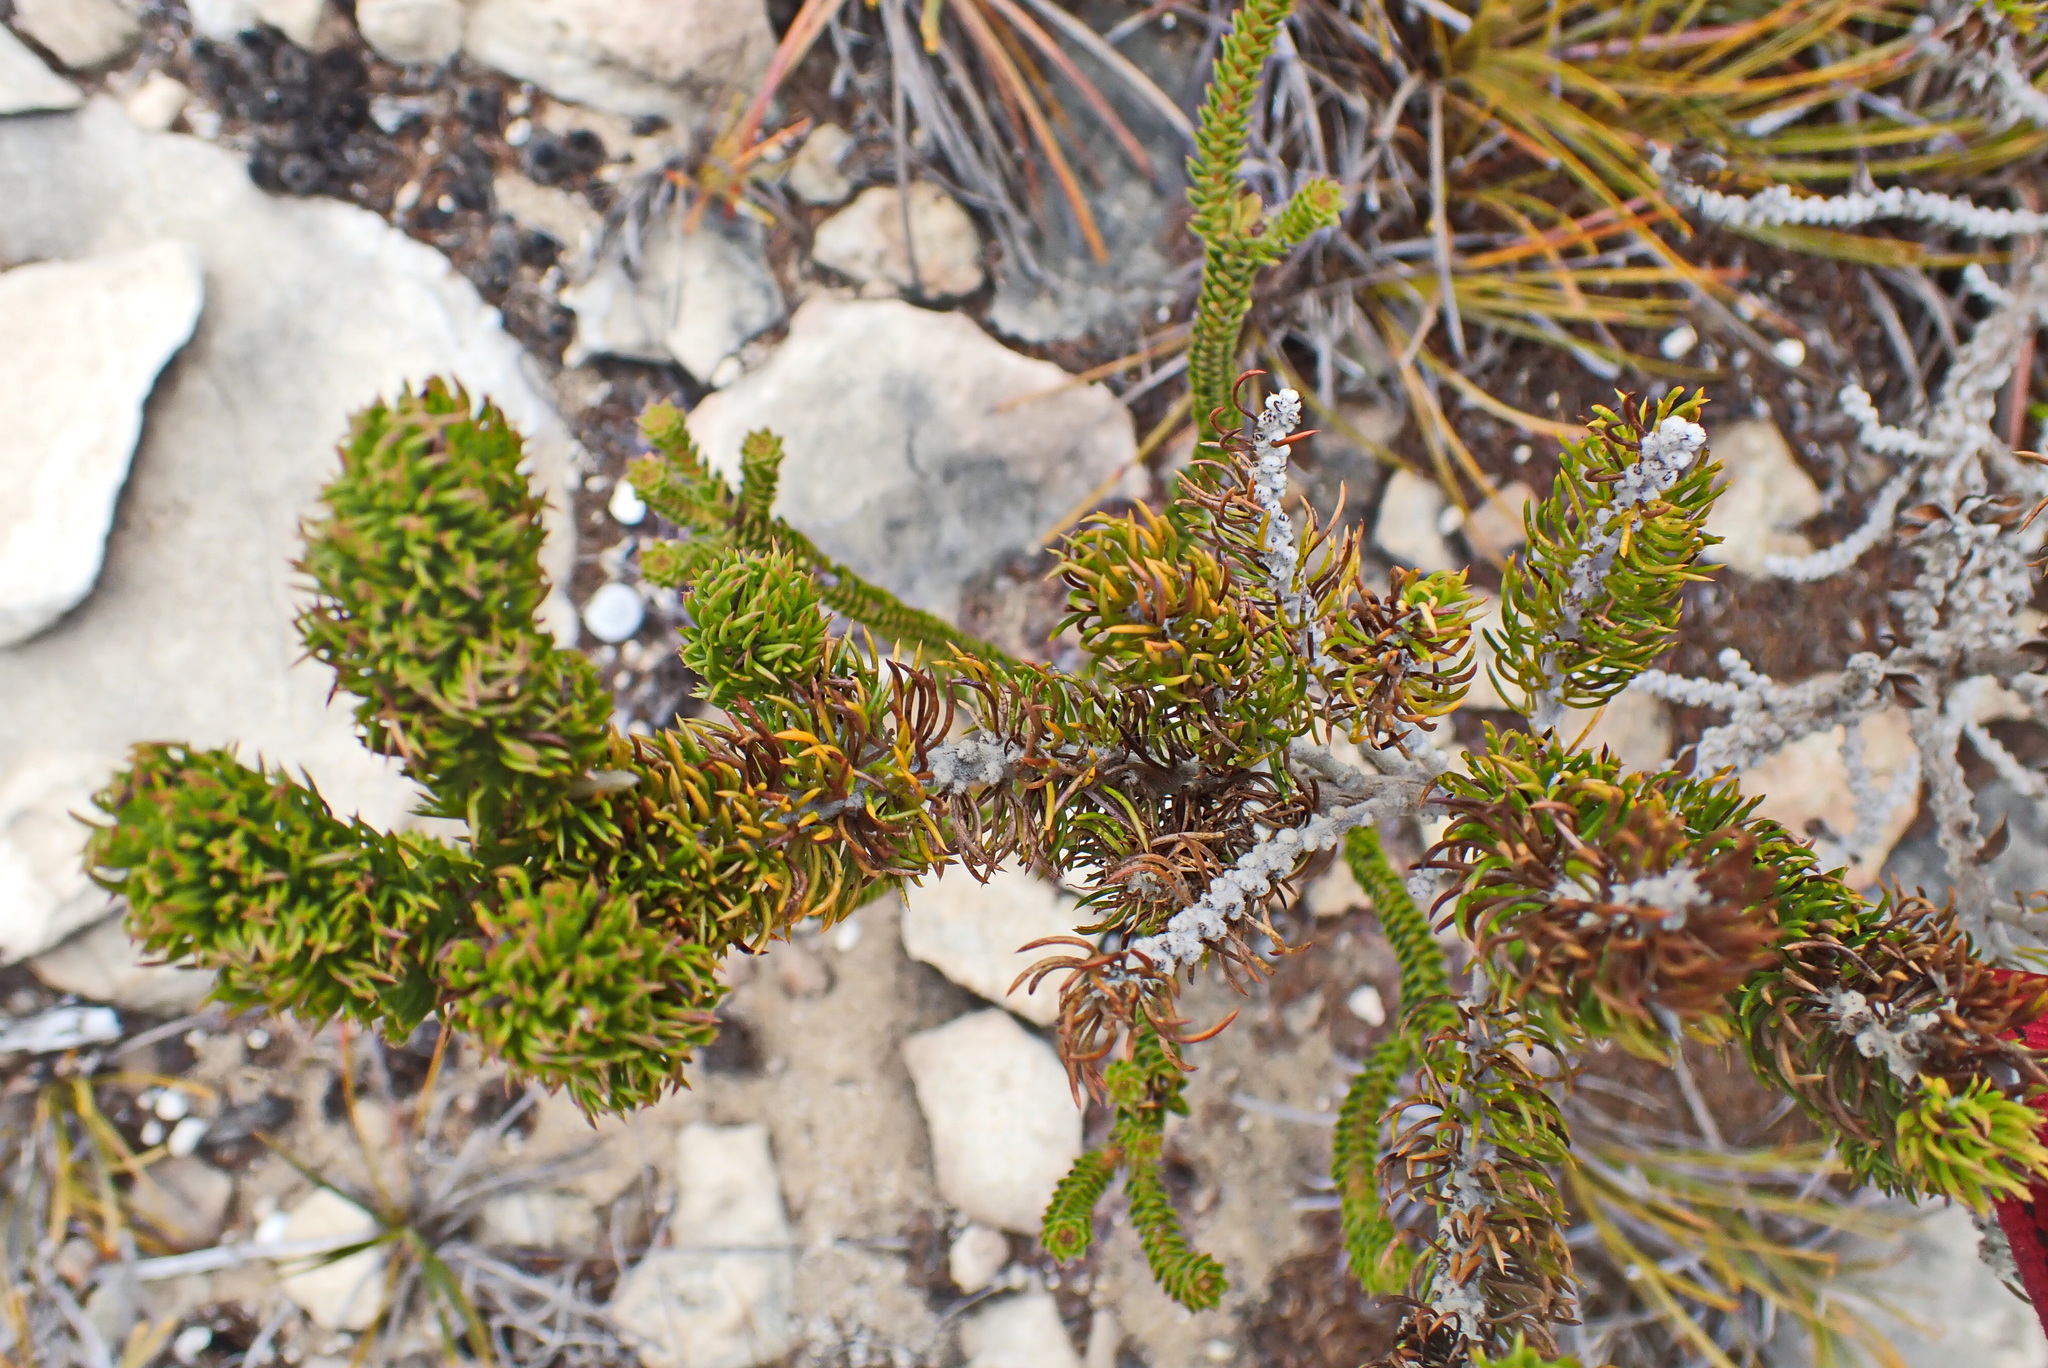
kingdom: Plantae
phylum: Tracheophyta
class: Magnoliopsida
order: Fabales
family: Fabaceae
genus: Aspalathus
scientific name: Aspalathus alopecurus
